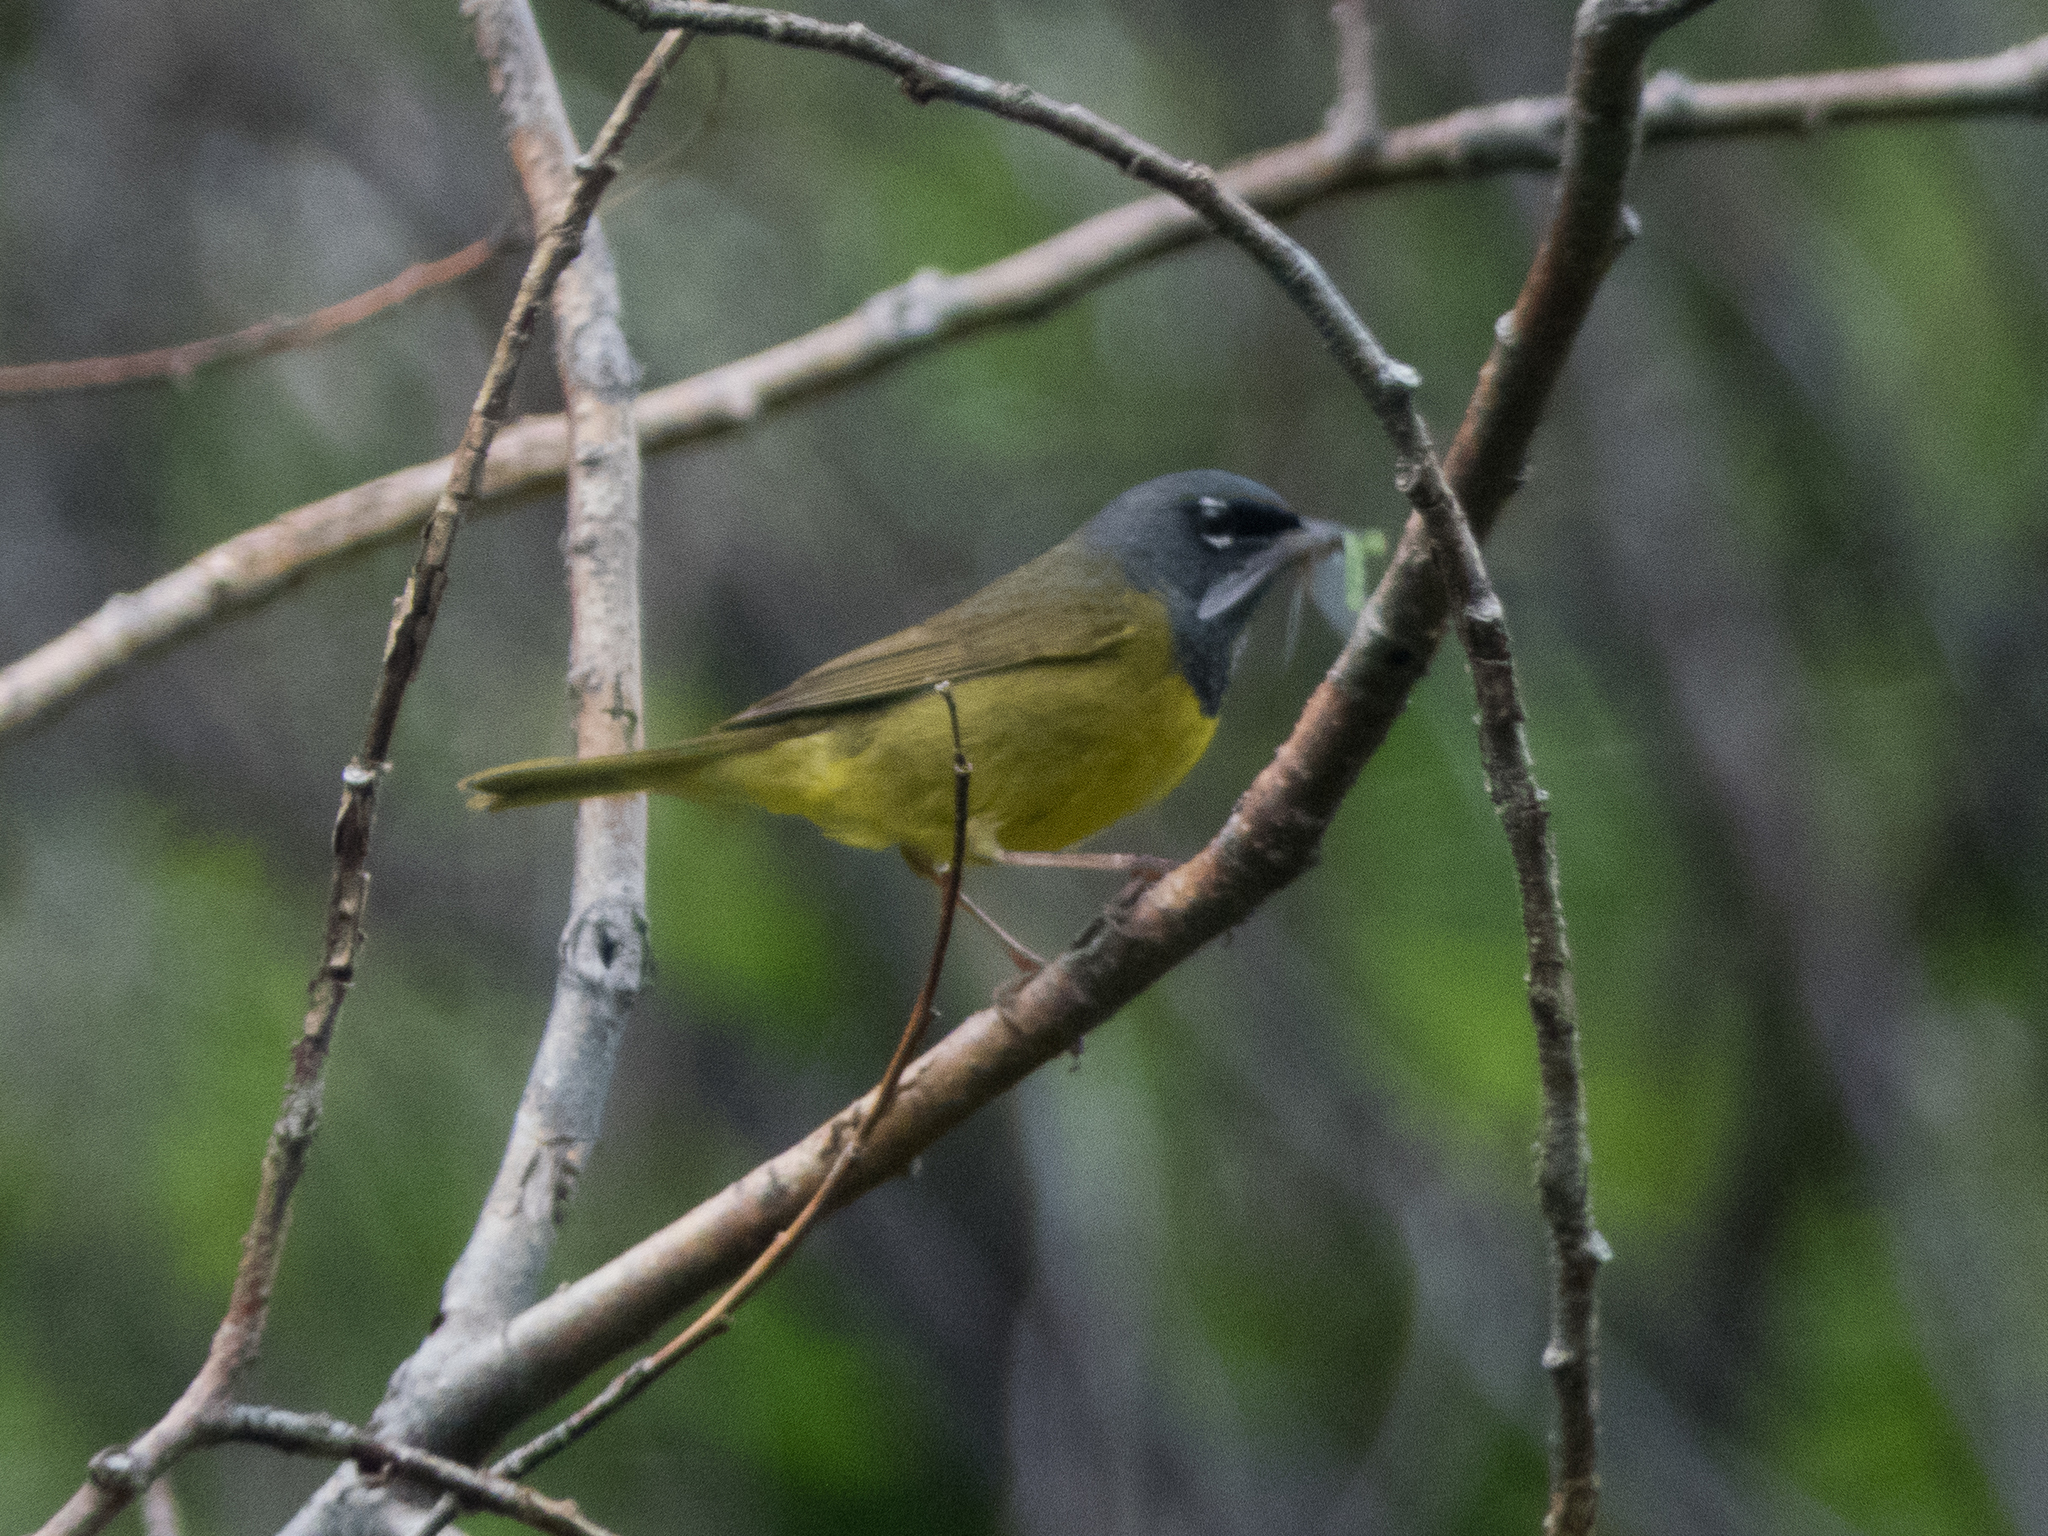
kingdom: Animalia
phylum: Chordata
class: Aves
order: Passeriformes
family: Parulidae
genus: Geothlypis
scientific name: Geothlypis tolmiei
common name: Macgillivray's warbler
